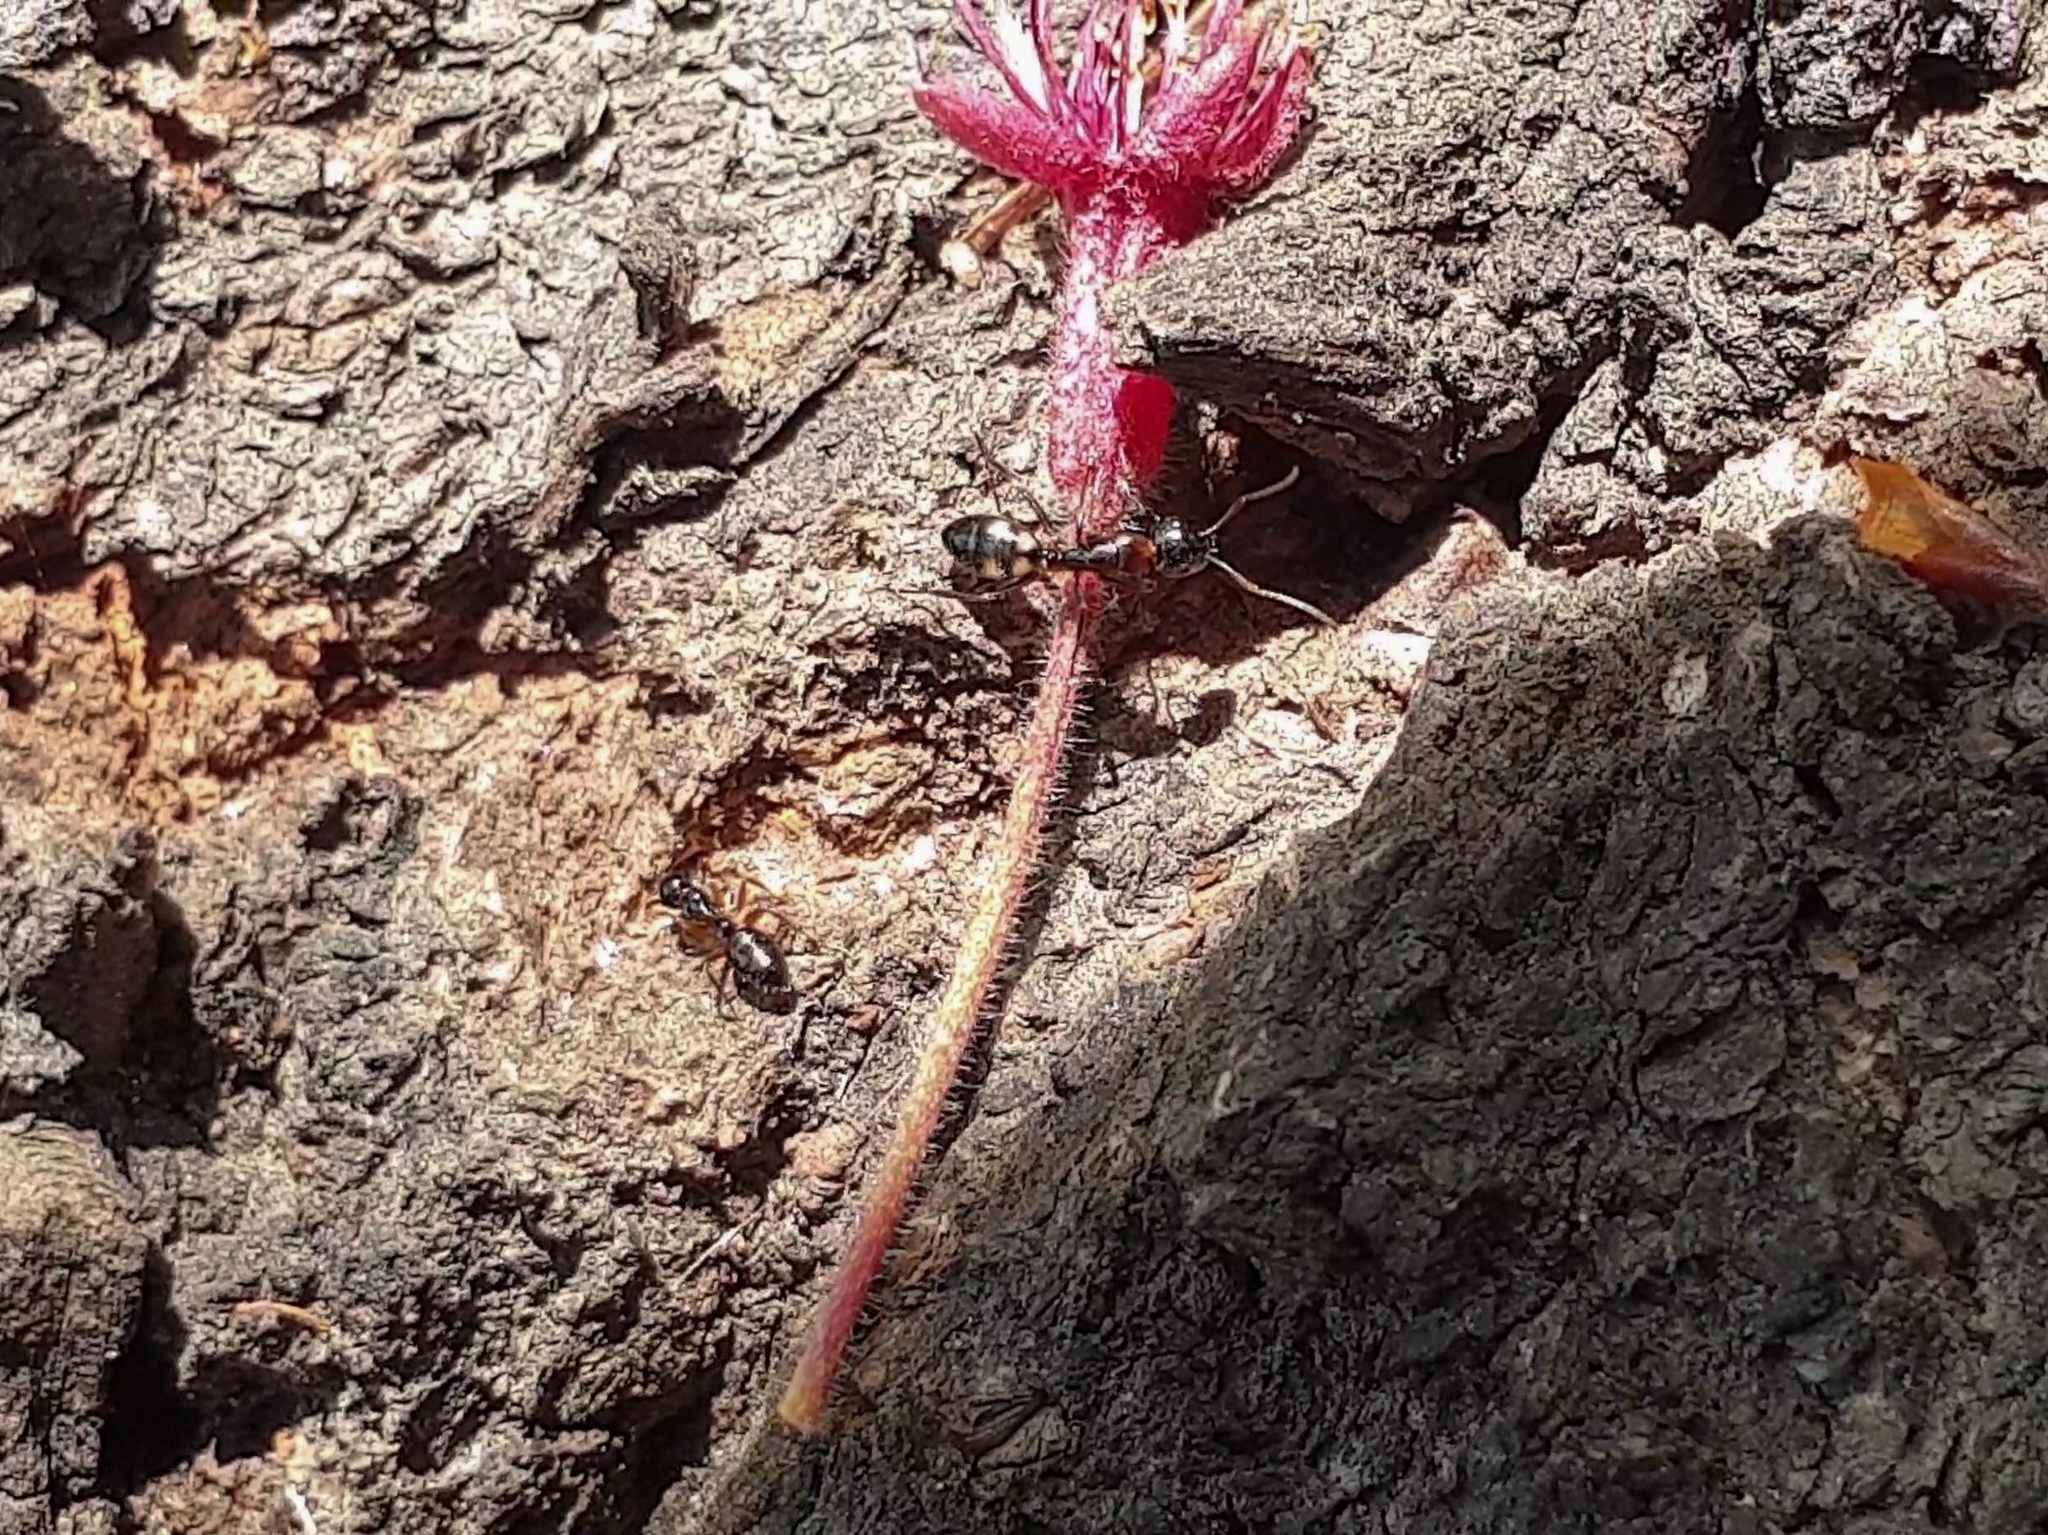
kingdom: Animalia
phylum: Arthropoda
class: Insecta
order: Hymenoptera
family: Formicidae
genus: Camponotus
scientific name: Camponotus quadrinotatus
